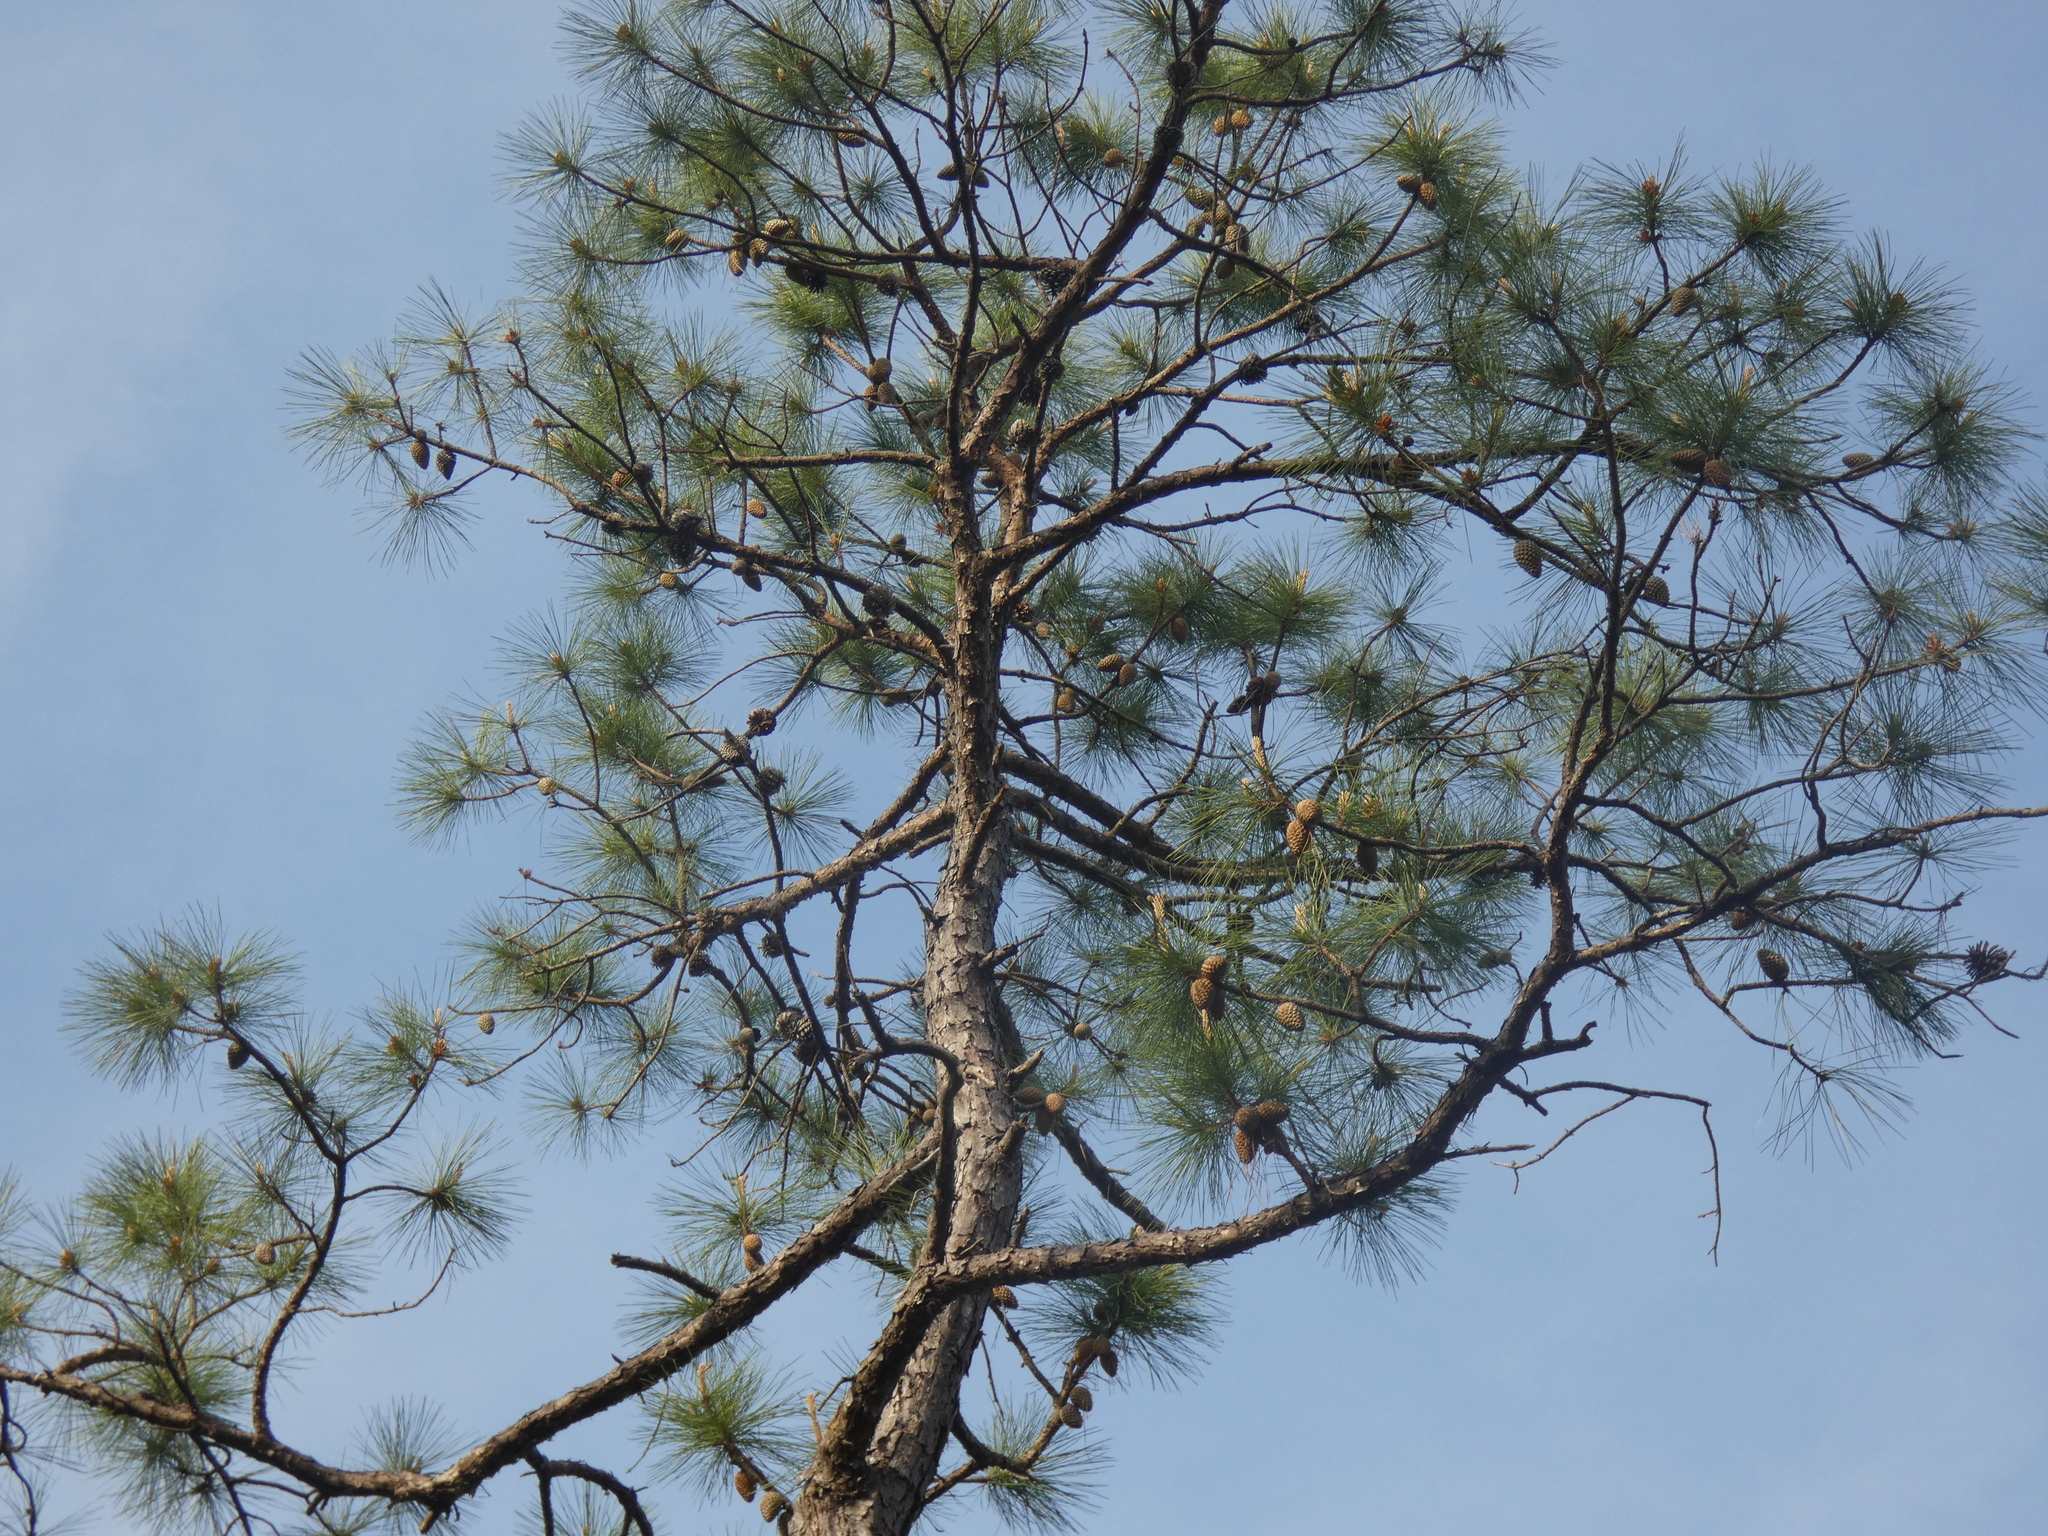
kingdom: Plantae
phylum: Tracheophyta
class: Pinopsida
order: Pinales
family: Pinaceae
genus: Pinus
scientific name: Pinus serotina
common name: Marsh pine
